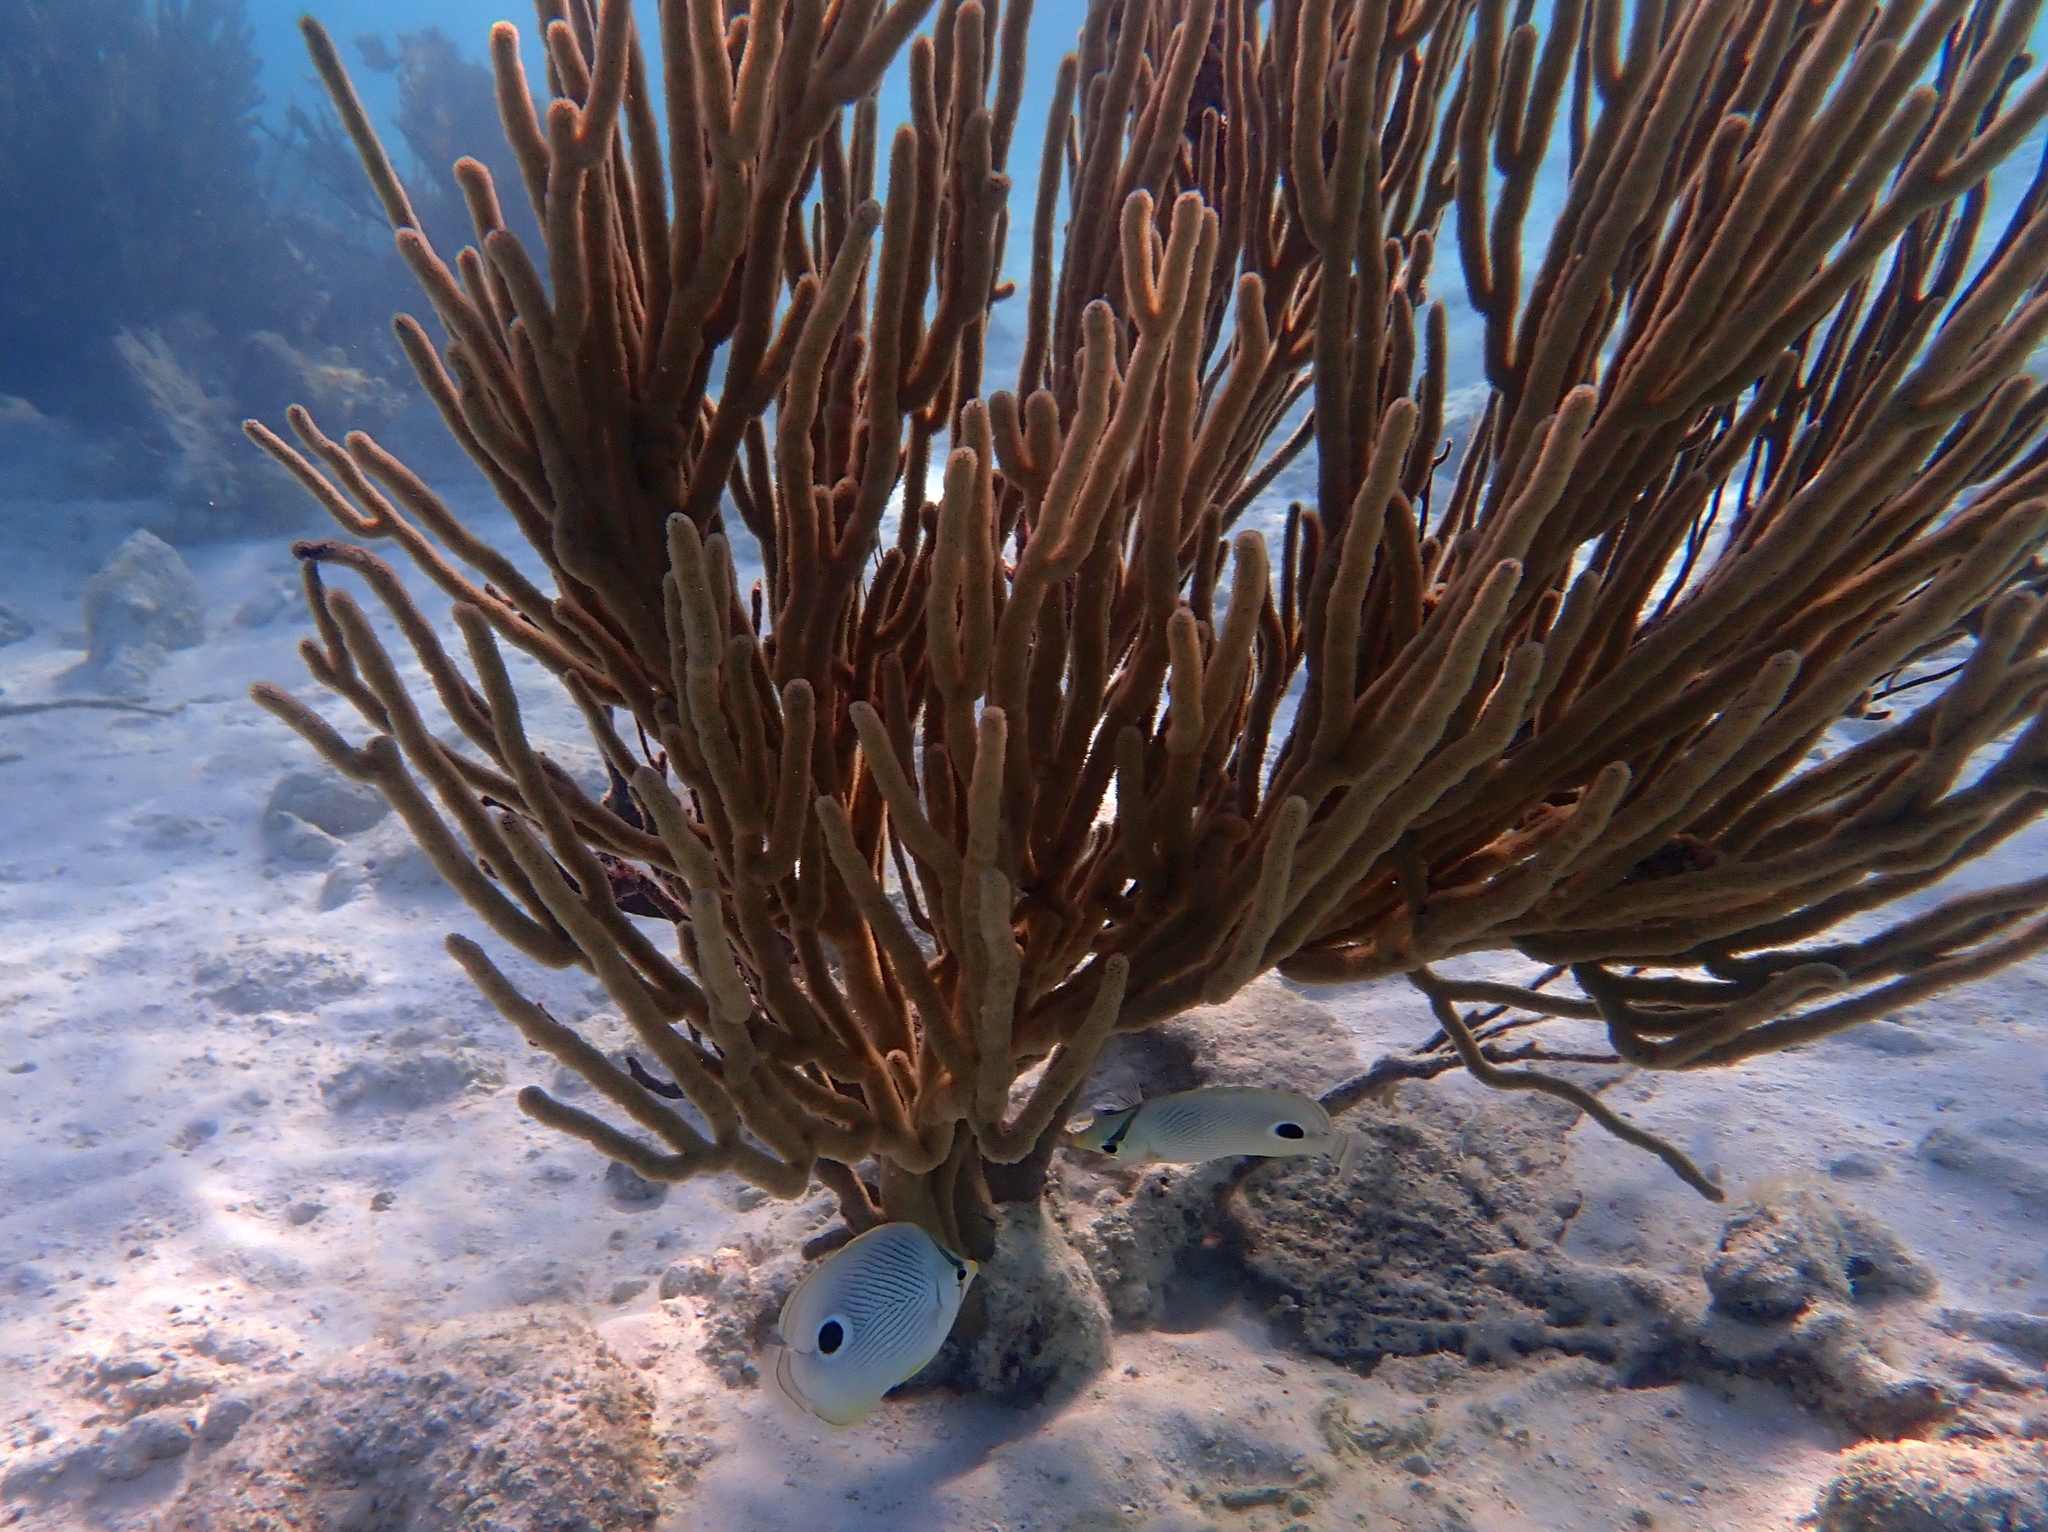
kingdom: Animalia
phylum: Chordata
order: Perciformes
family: Chaetodontidae
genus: Chaetodon
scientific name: Chaetodon capistratus
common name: Kete
